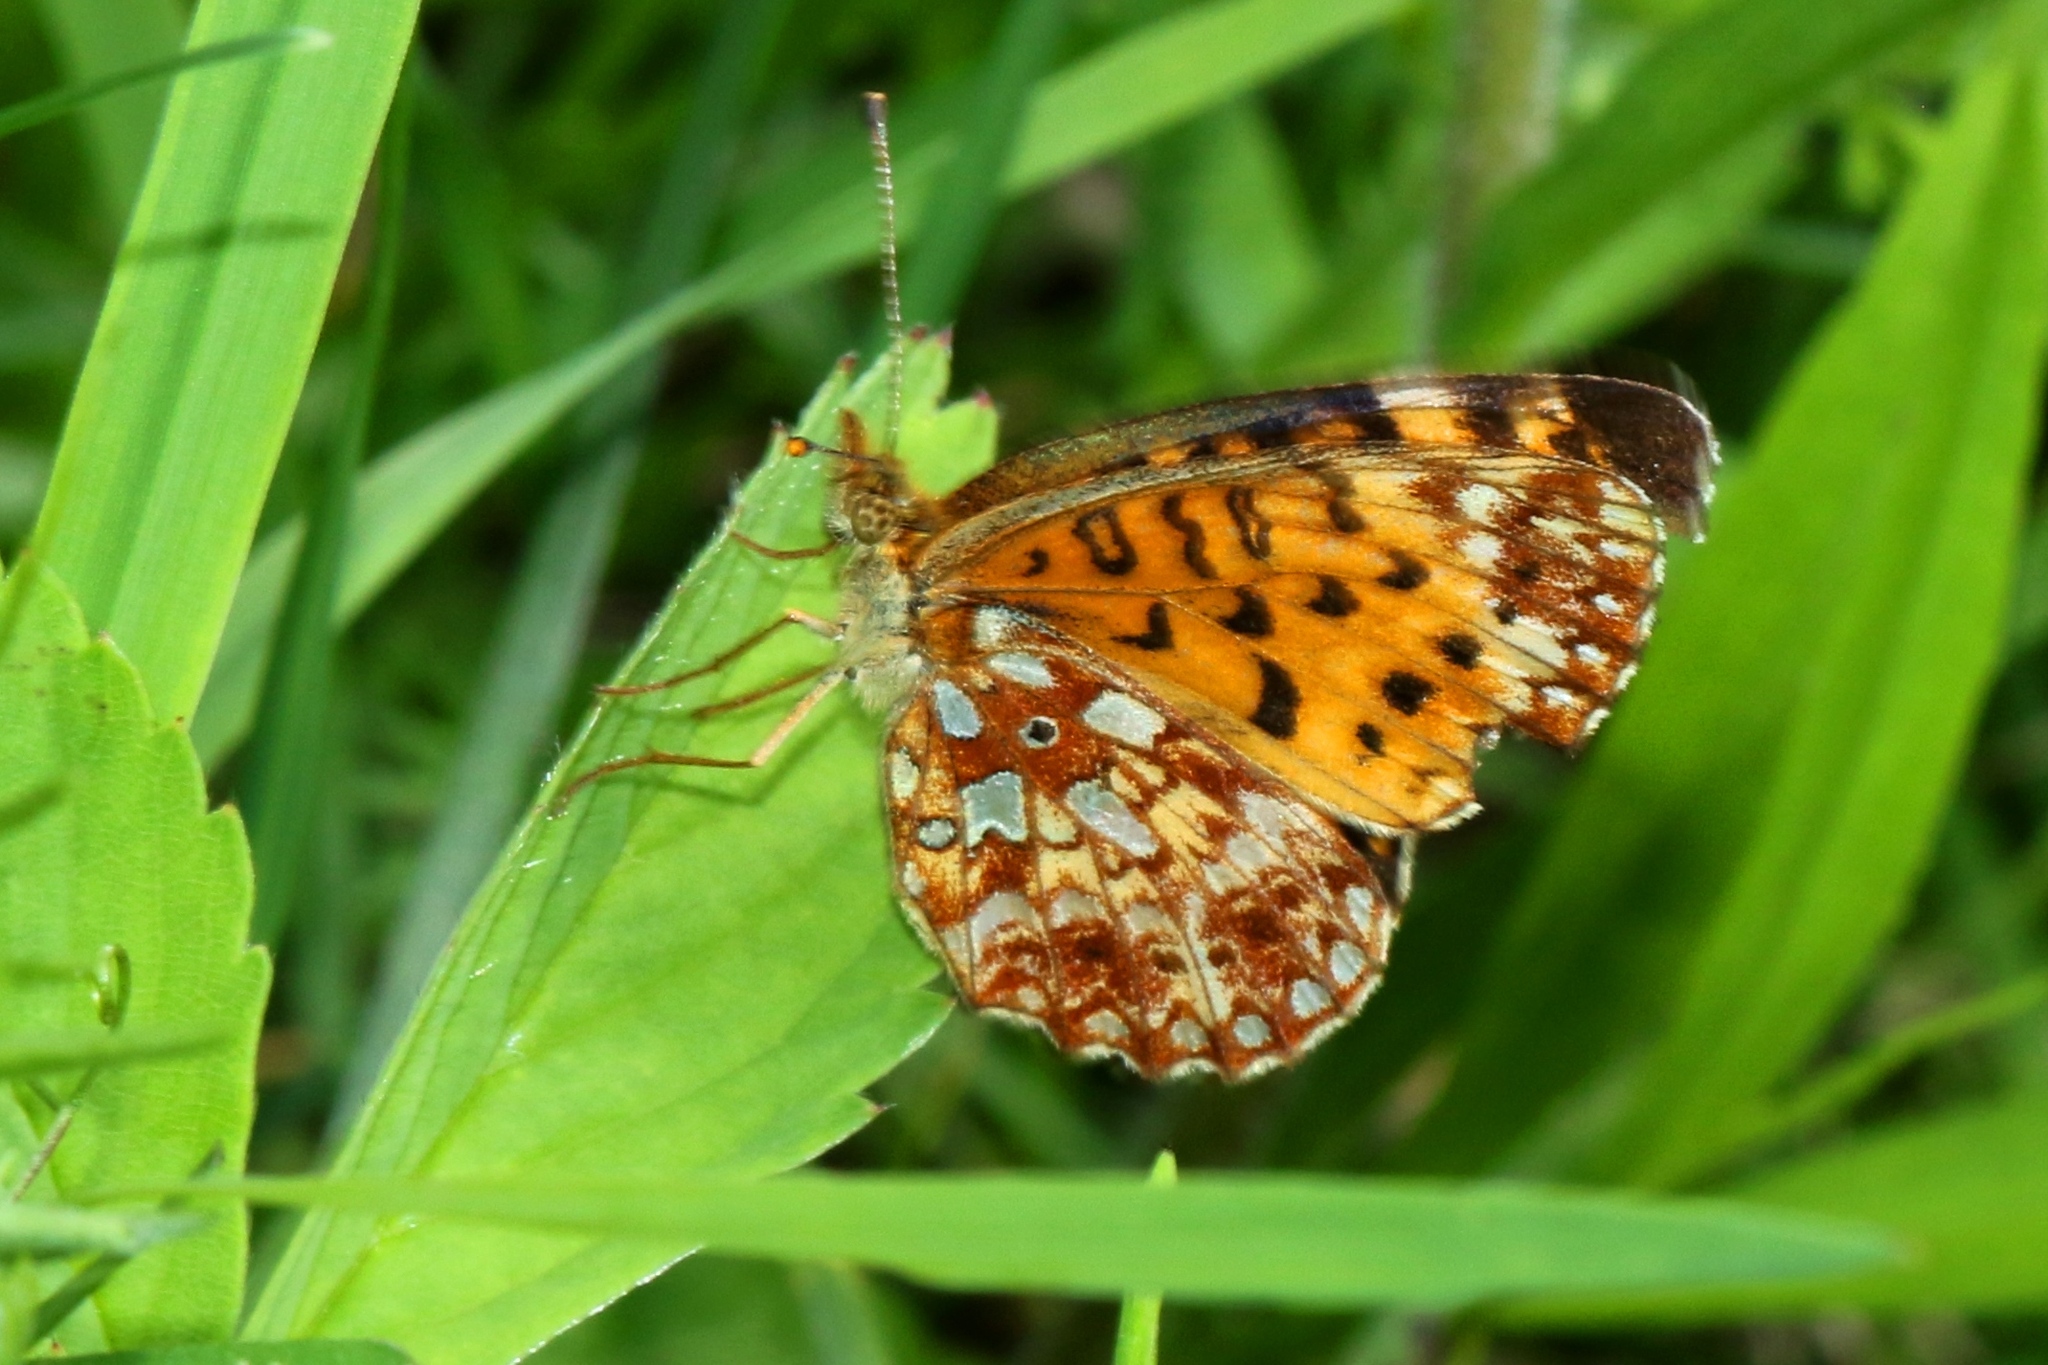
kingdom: Animalia
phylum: Arthropoda
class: Insecta
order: Lepidoptera
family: Nymphalidae
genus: Boloria
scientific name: Boloria
